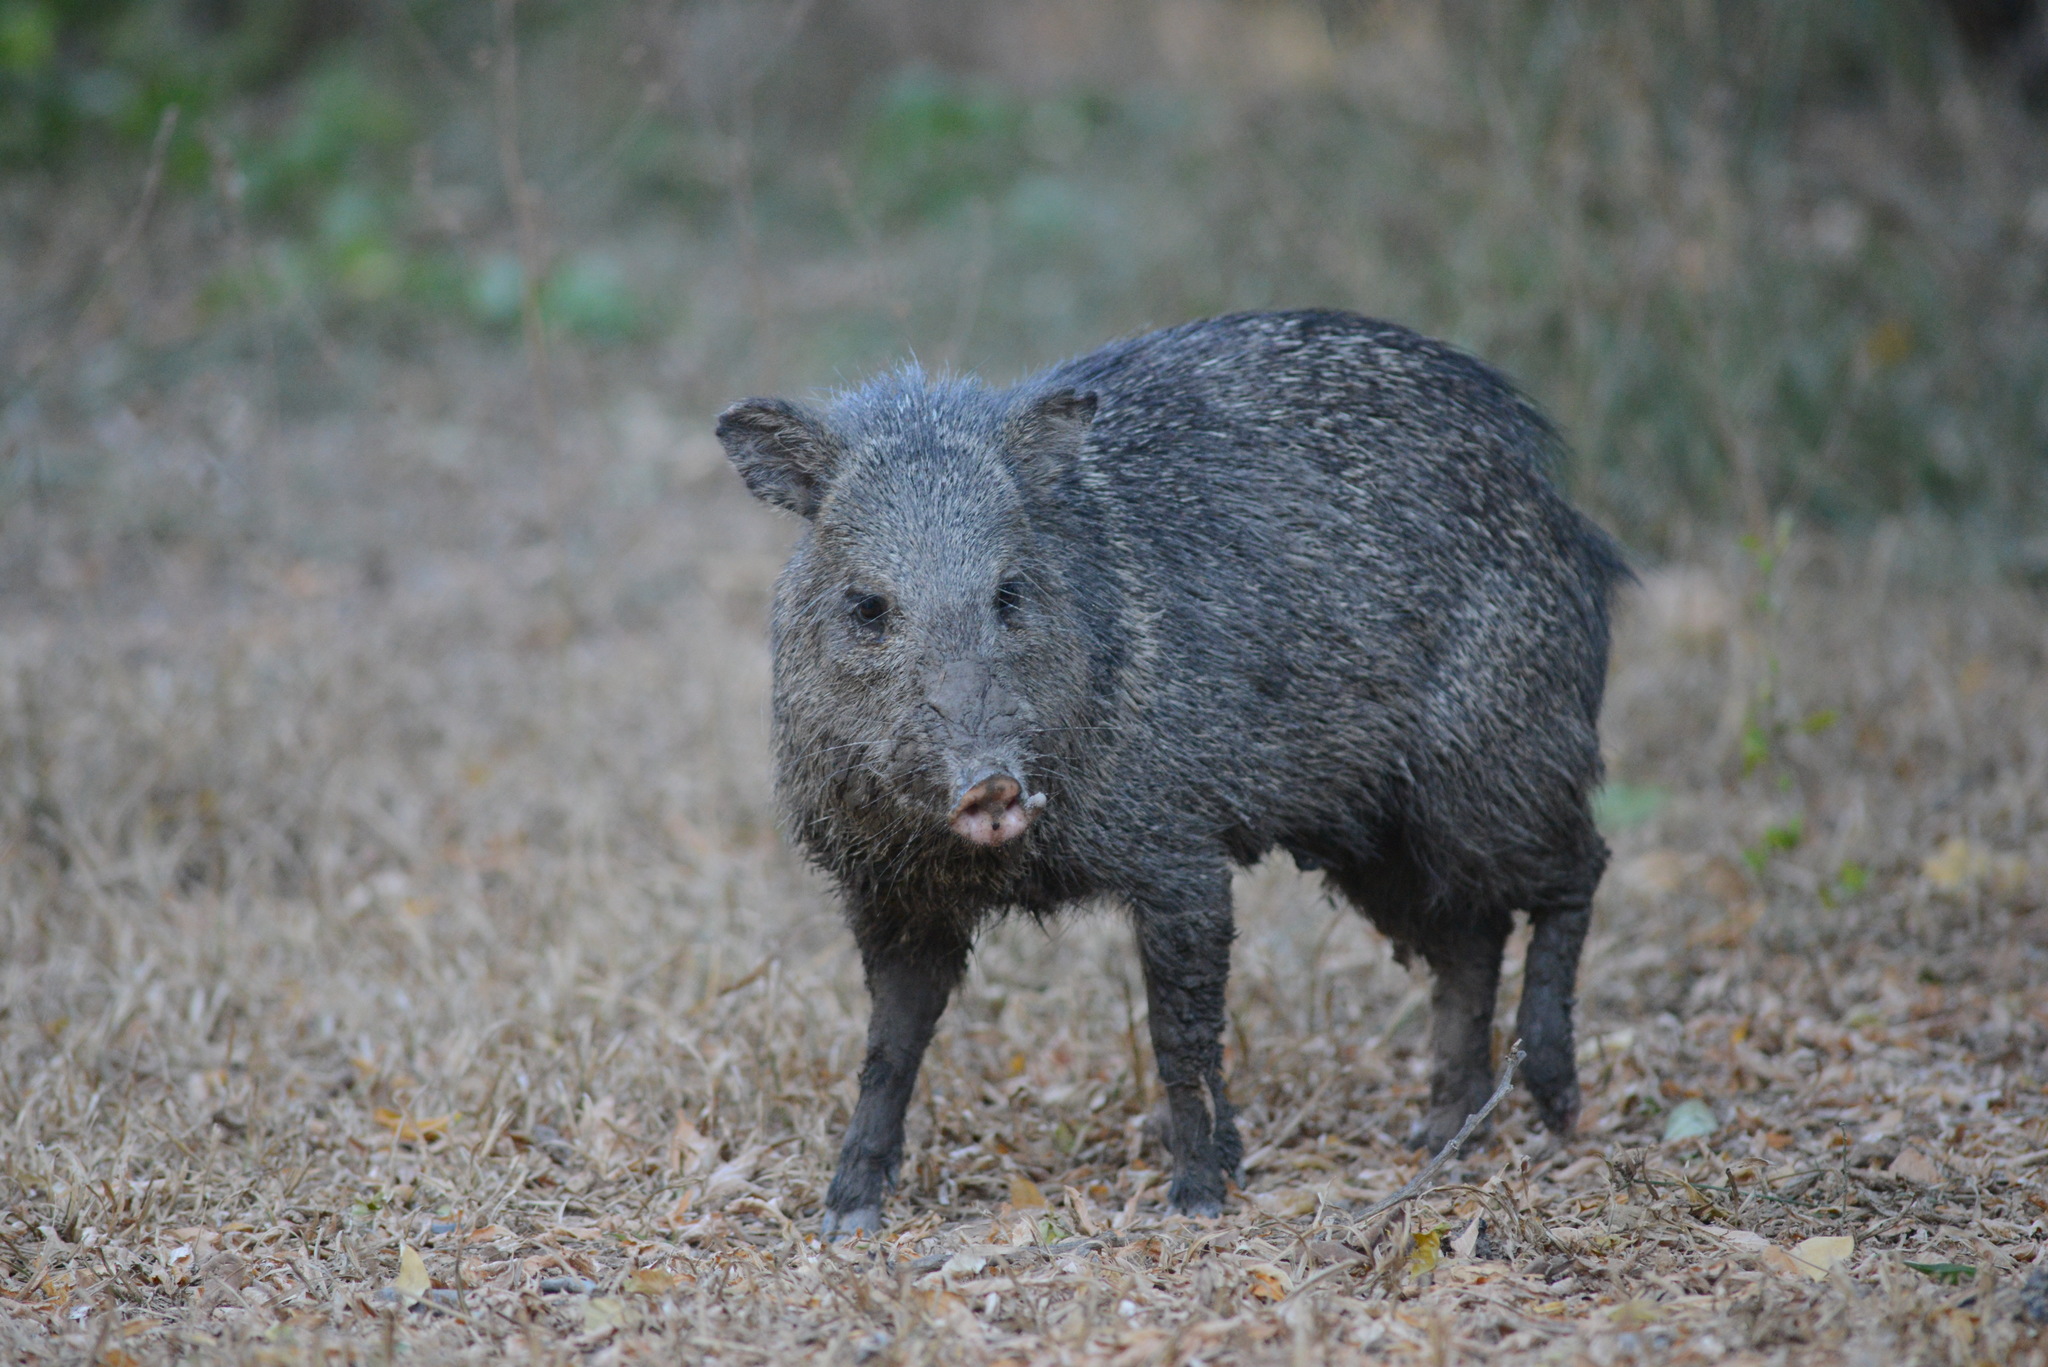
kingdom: Animalia
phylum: Chordata
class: Mammalia
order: Artiodactyla
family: Tayassuidae
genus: Pecari
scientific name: Pecari tajacu
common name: Collared peccary
